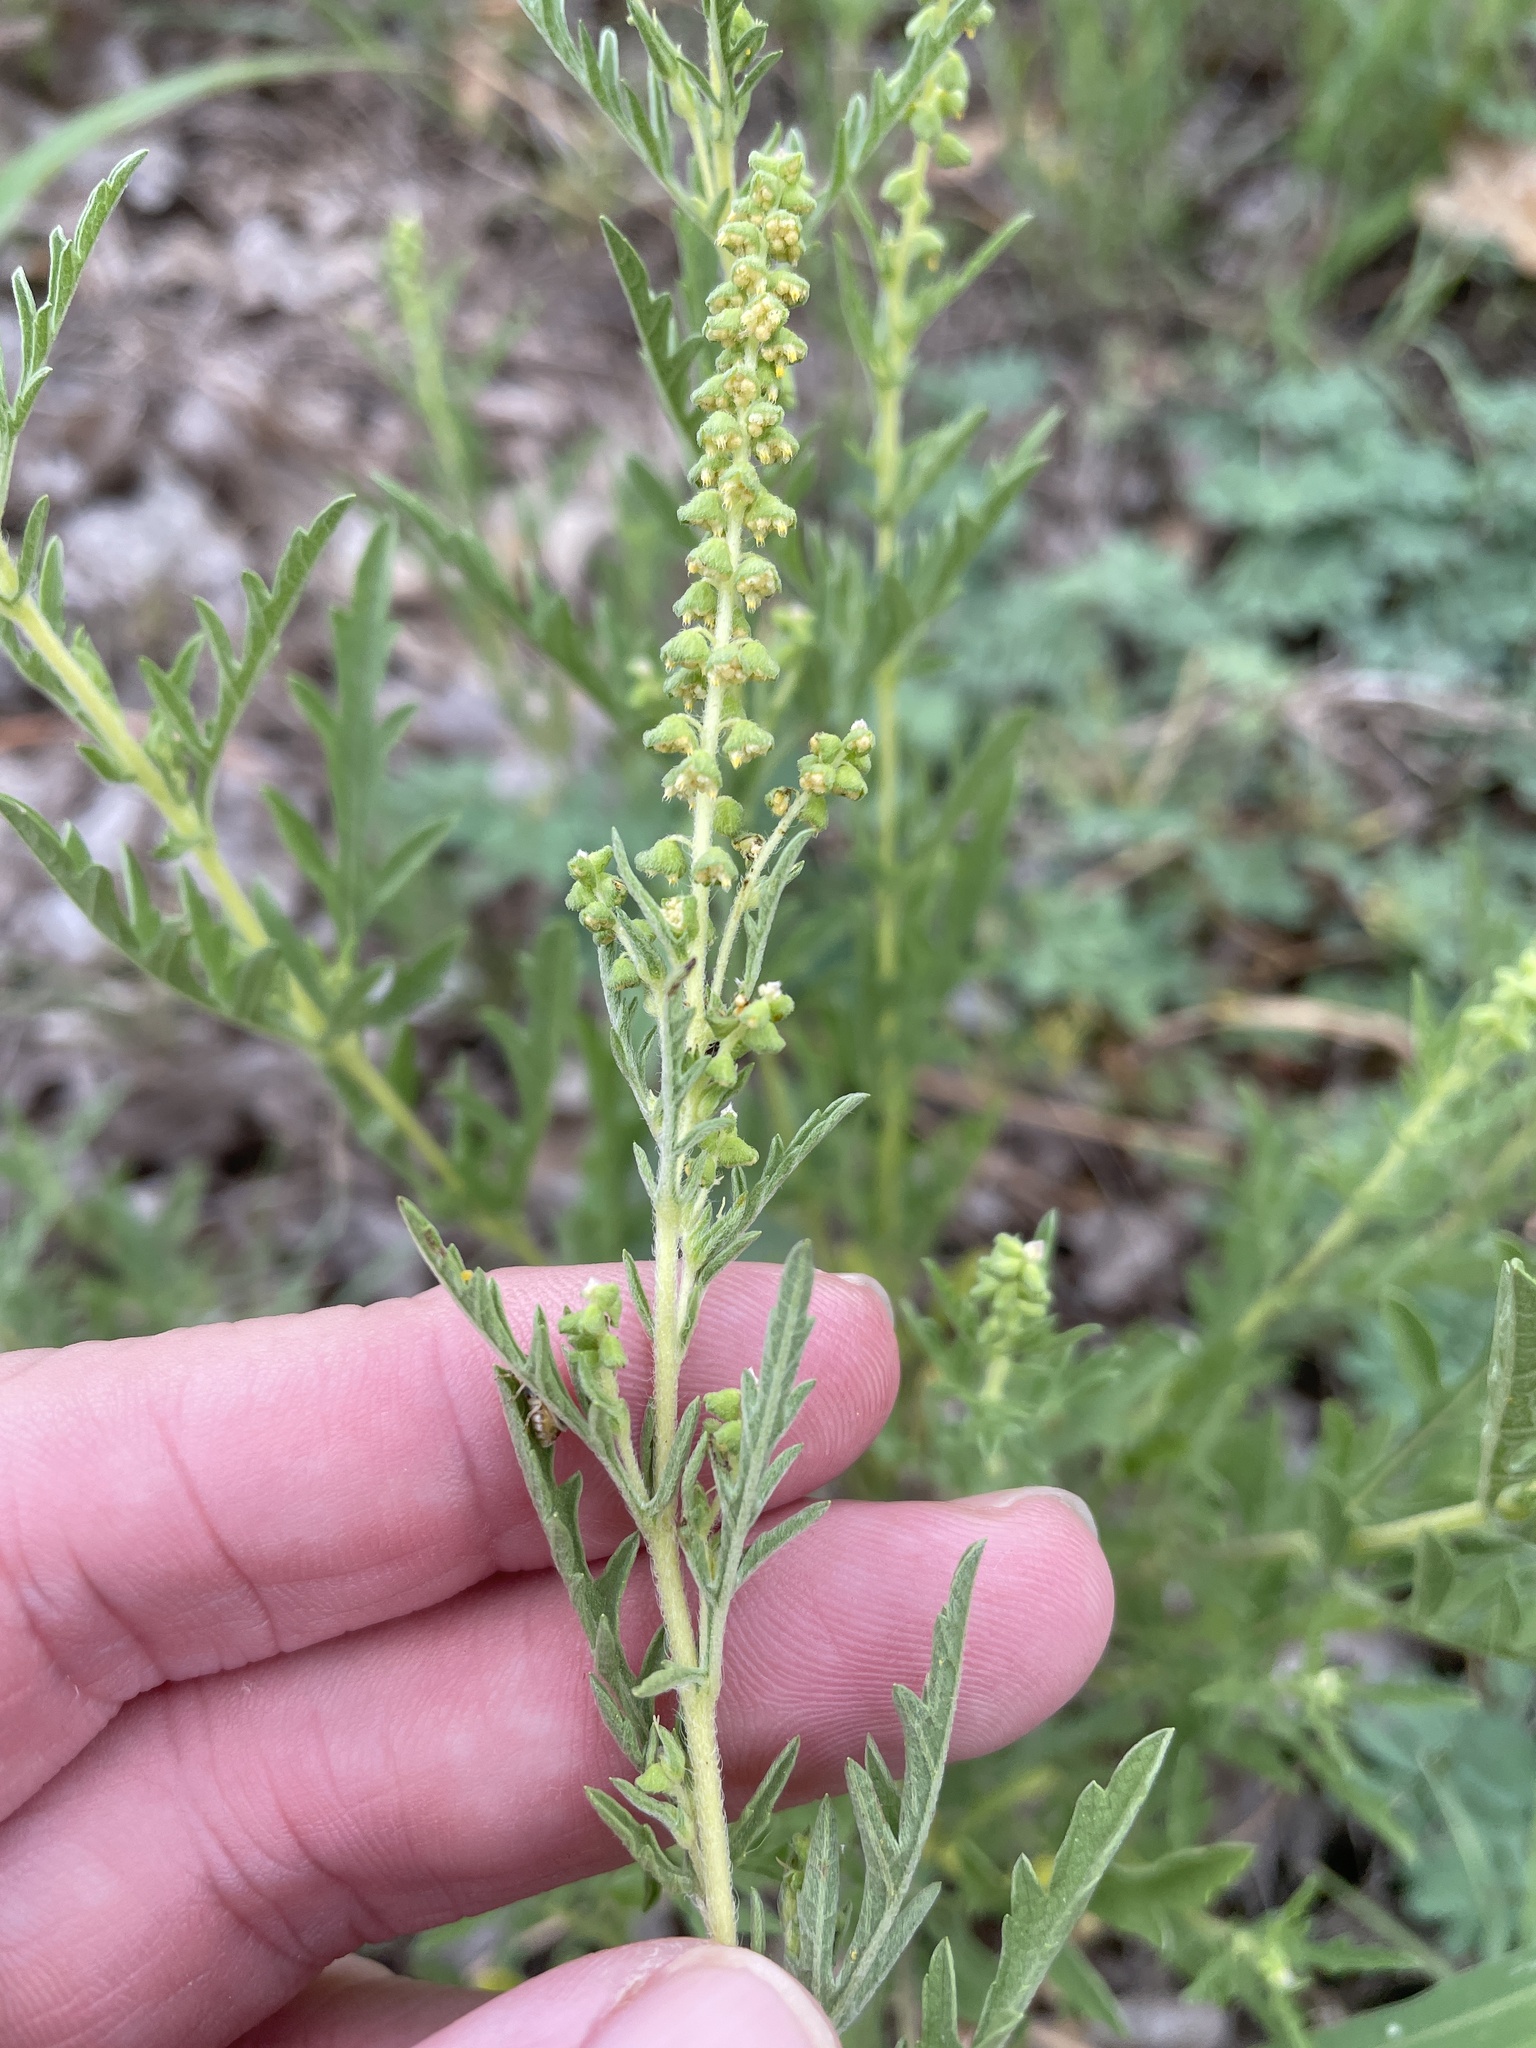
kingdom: Plantae
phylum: Tracheophyta
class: Magnoliopsida
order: Asterales
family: Asteraceae
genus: Ambrosia
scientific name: Ambrosia psilostachya
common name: Perennial ragweed
